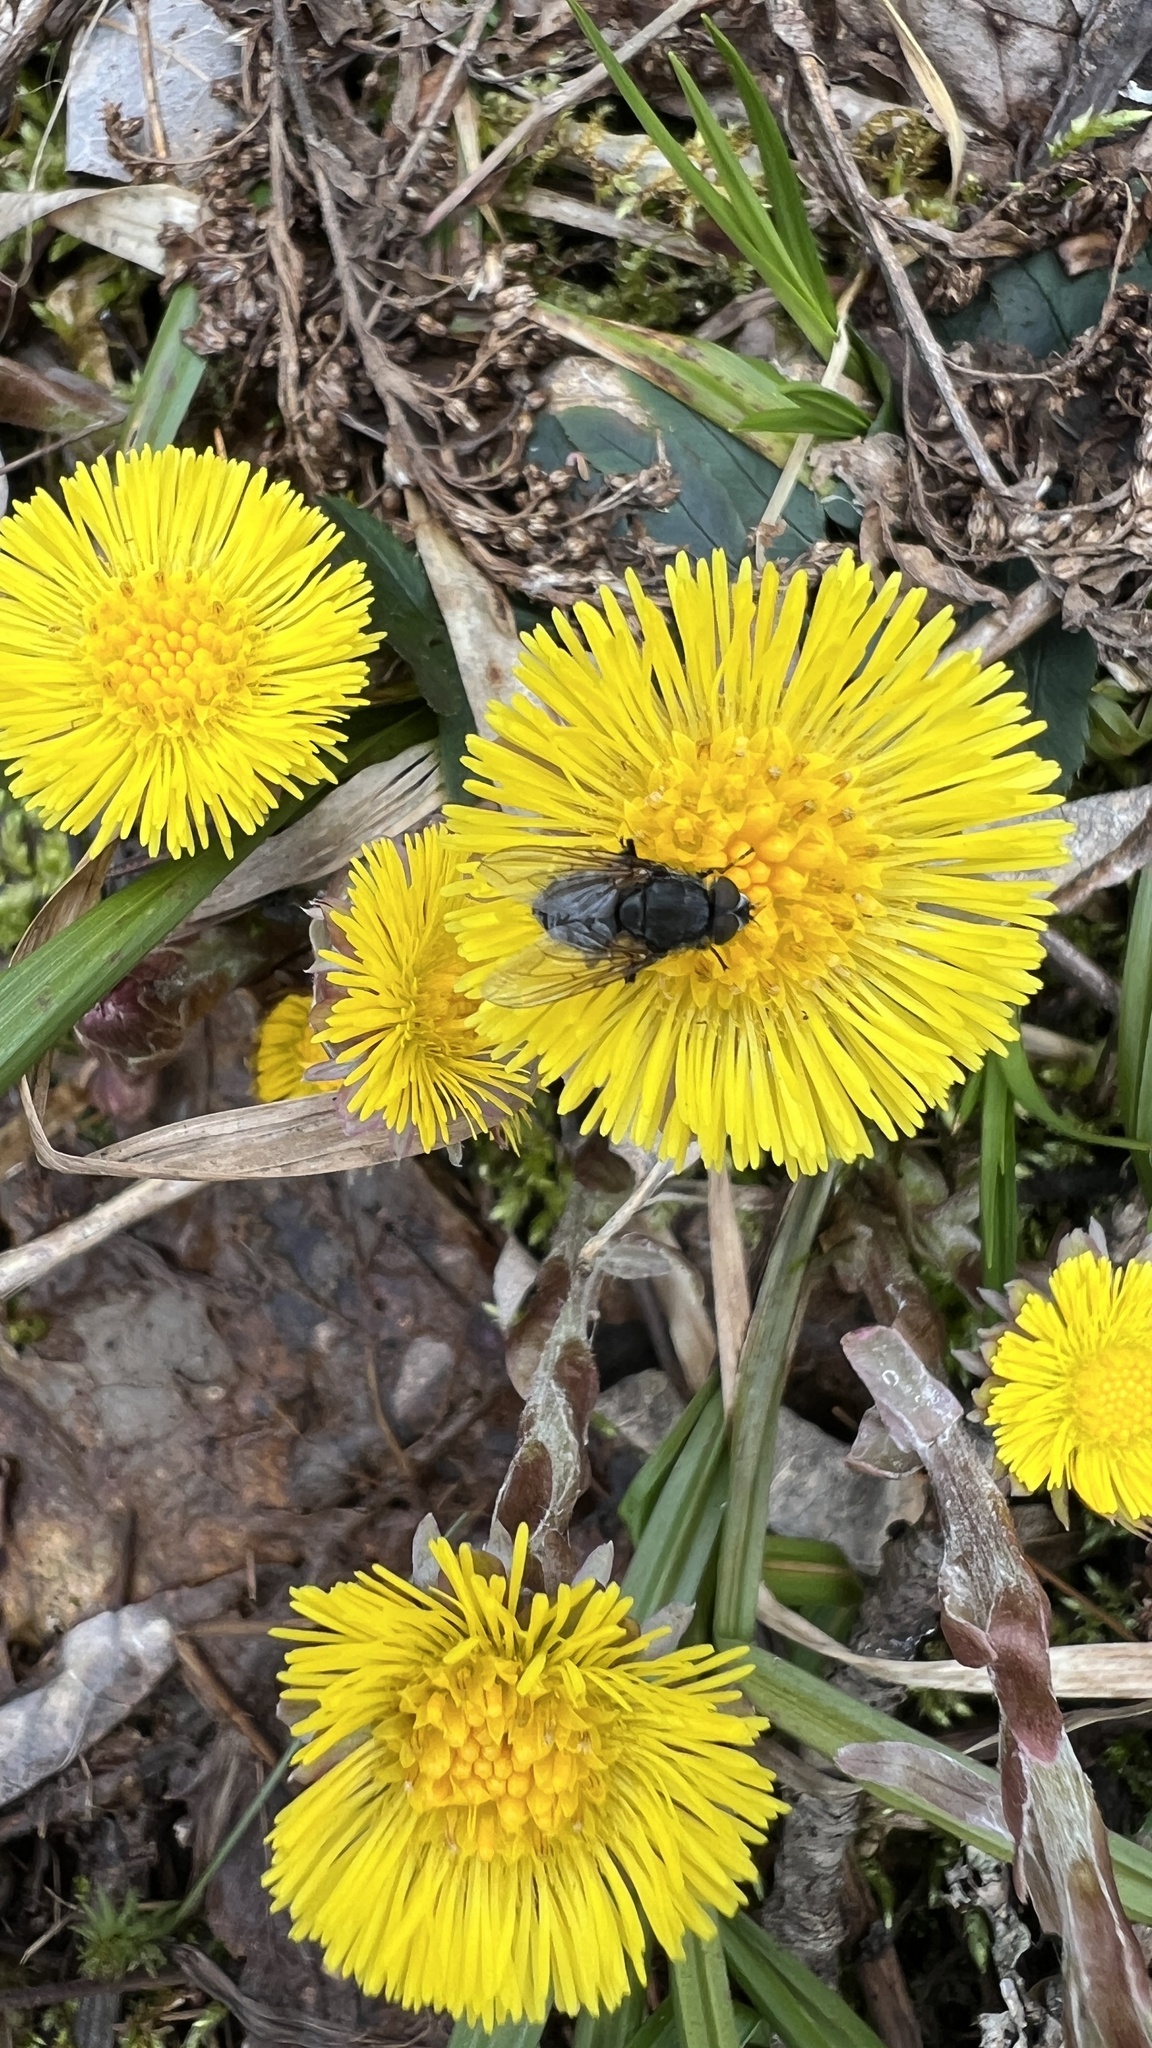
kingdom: Plantae
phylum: Tracheophyta
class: Magnoliopsida
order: Asterales
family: Asteraceae
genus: Tussilago
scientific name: Tussilago farfara
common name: Coltsfoot
